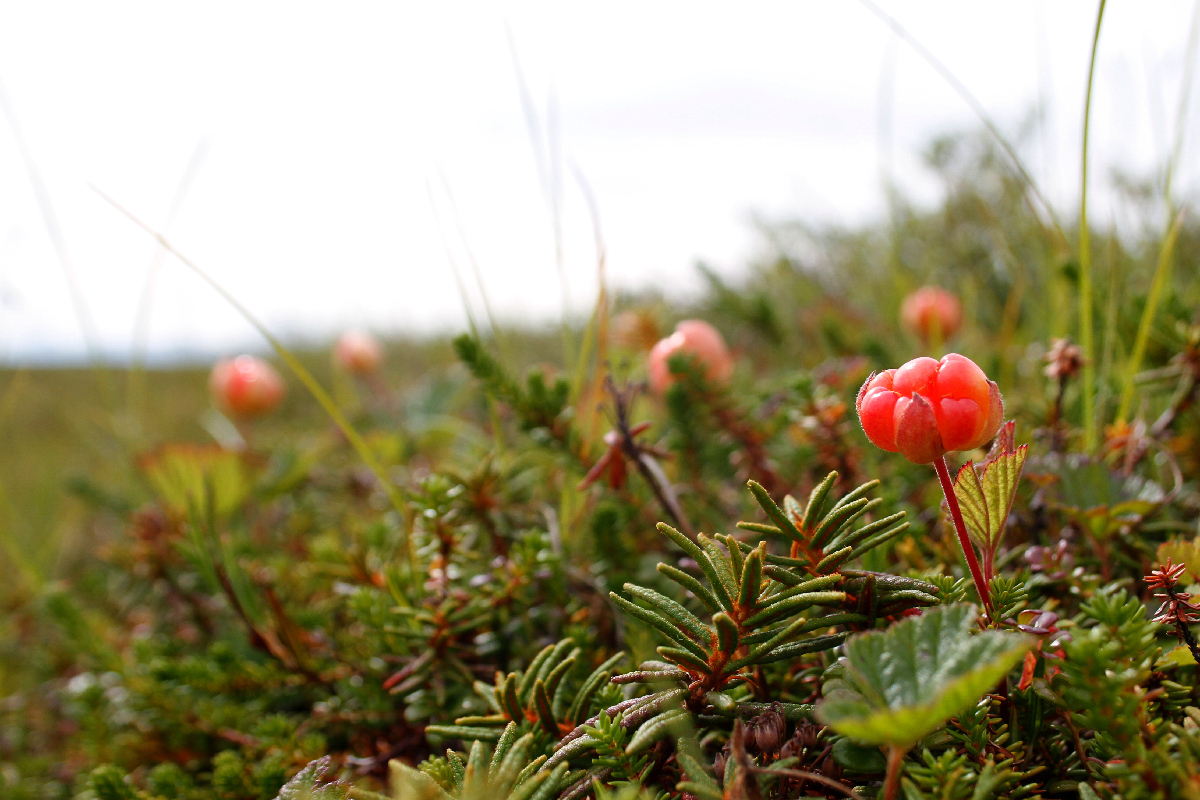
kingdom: Plantae
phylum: Tracheophyta
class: Magnoliopsida
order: Rosales
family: Rosaceae
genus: Rubus
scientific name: Rubus chamaemorus
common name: Cloudberry
